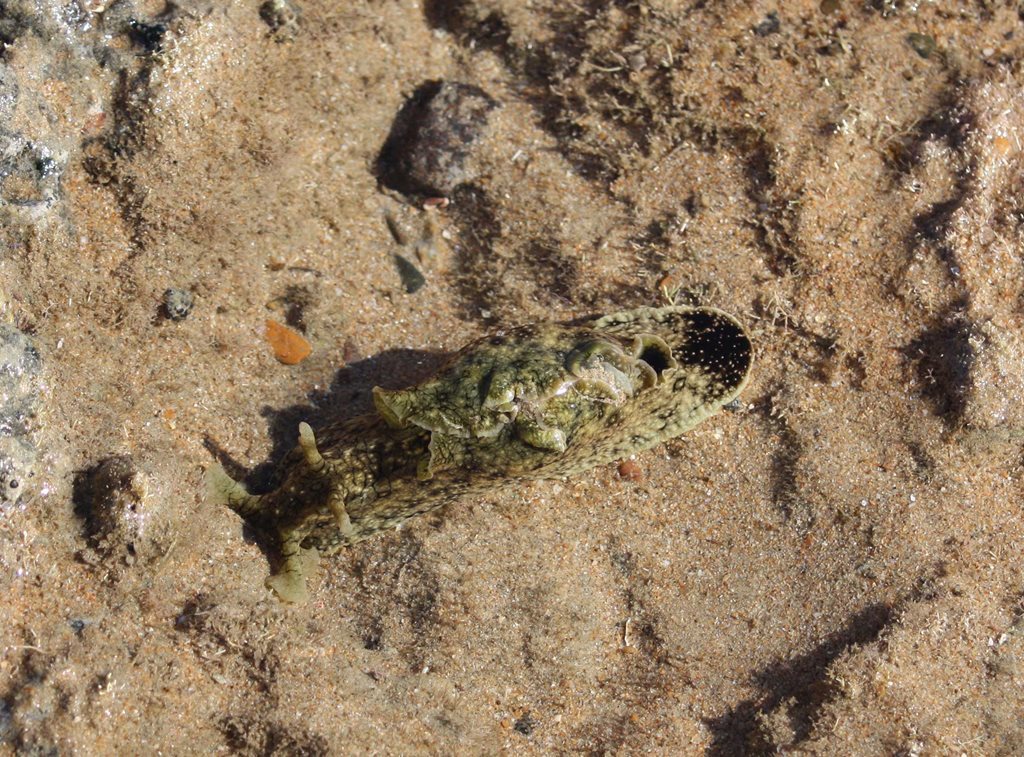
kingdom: Animalia
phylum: Mollusca
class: Gastropoda
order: Aplysiida
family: Aplysiidae
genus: Aplysia
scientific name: Aplysia argus
